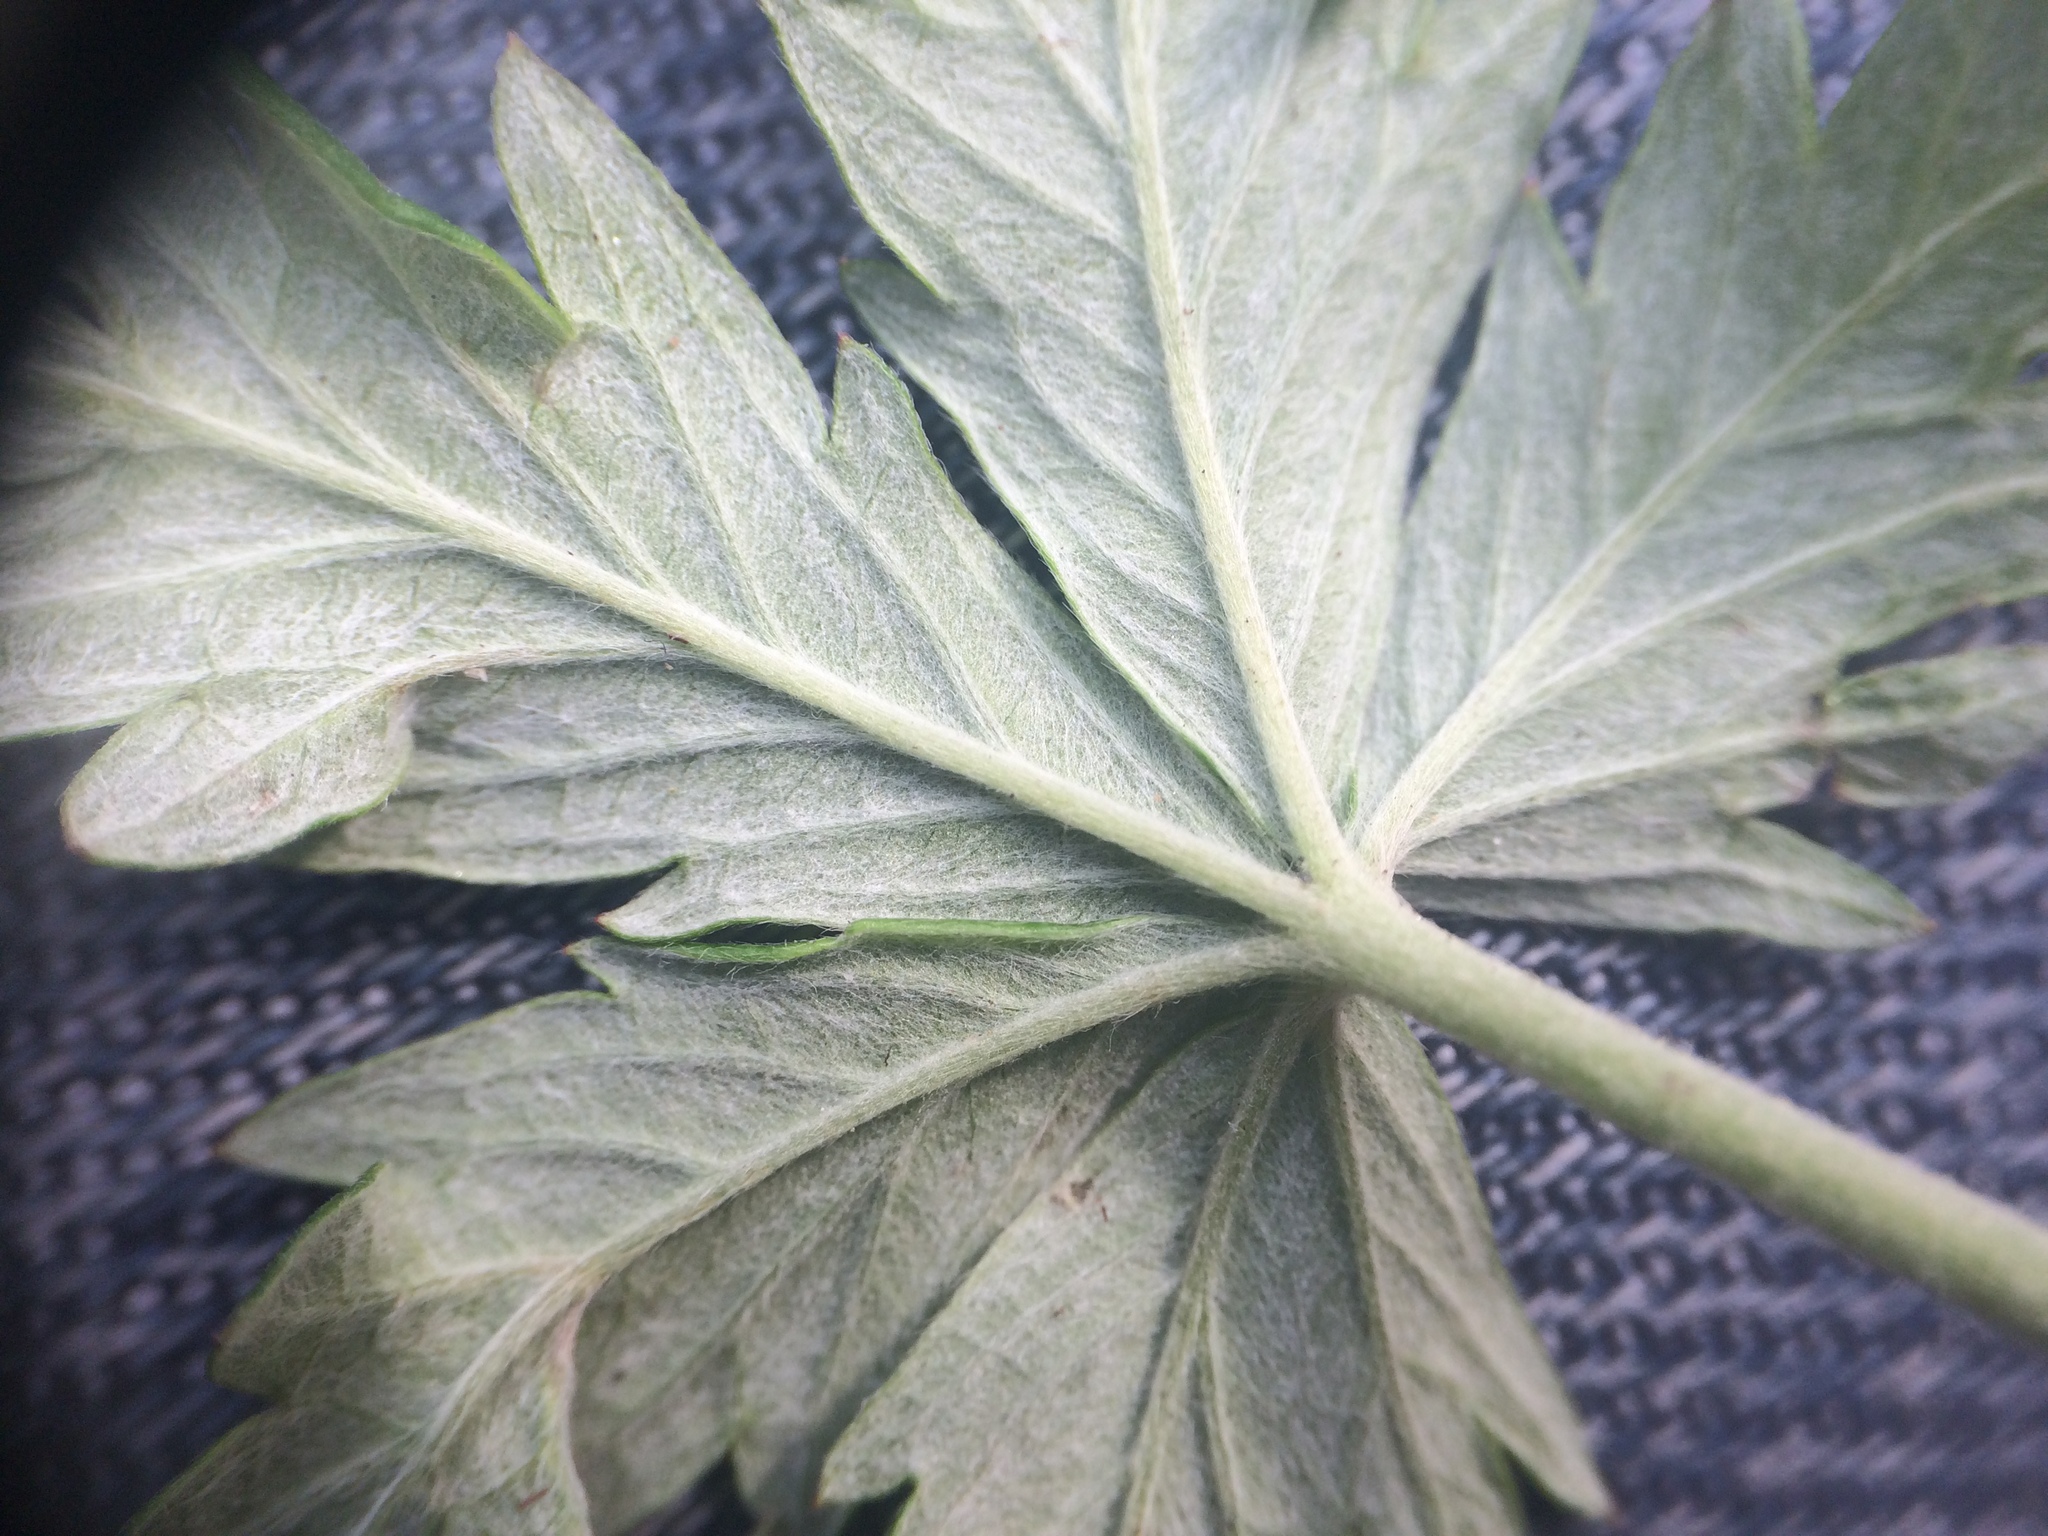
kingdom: Plantae
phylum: Tracheophyta
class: Magnoliopsida
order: Rosales
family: Rosaceae
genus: Potentilla
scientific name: Potentilla argentea
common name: Hoary cinquefoil
